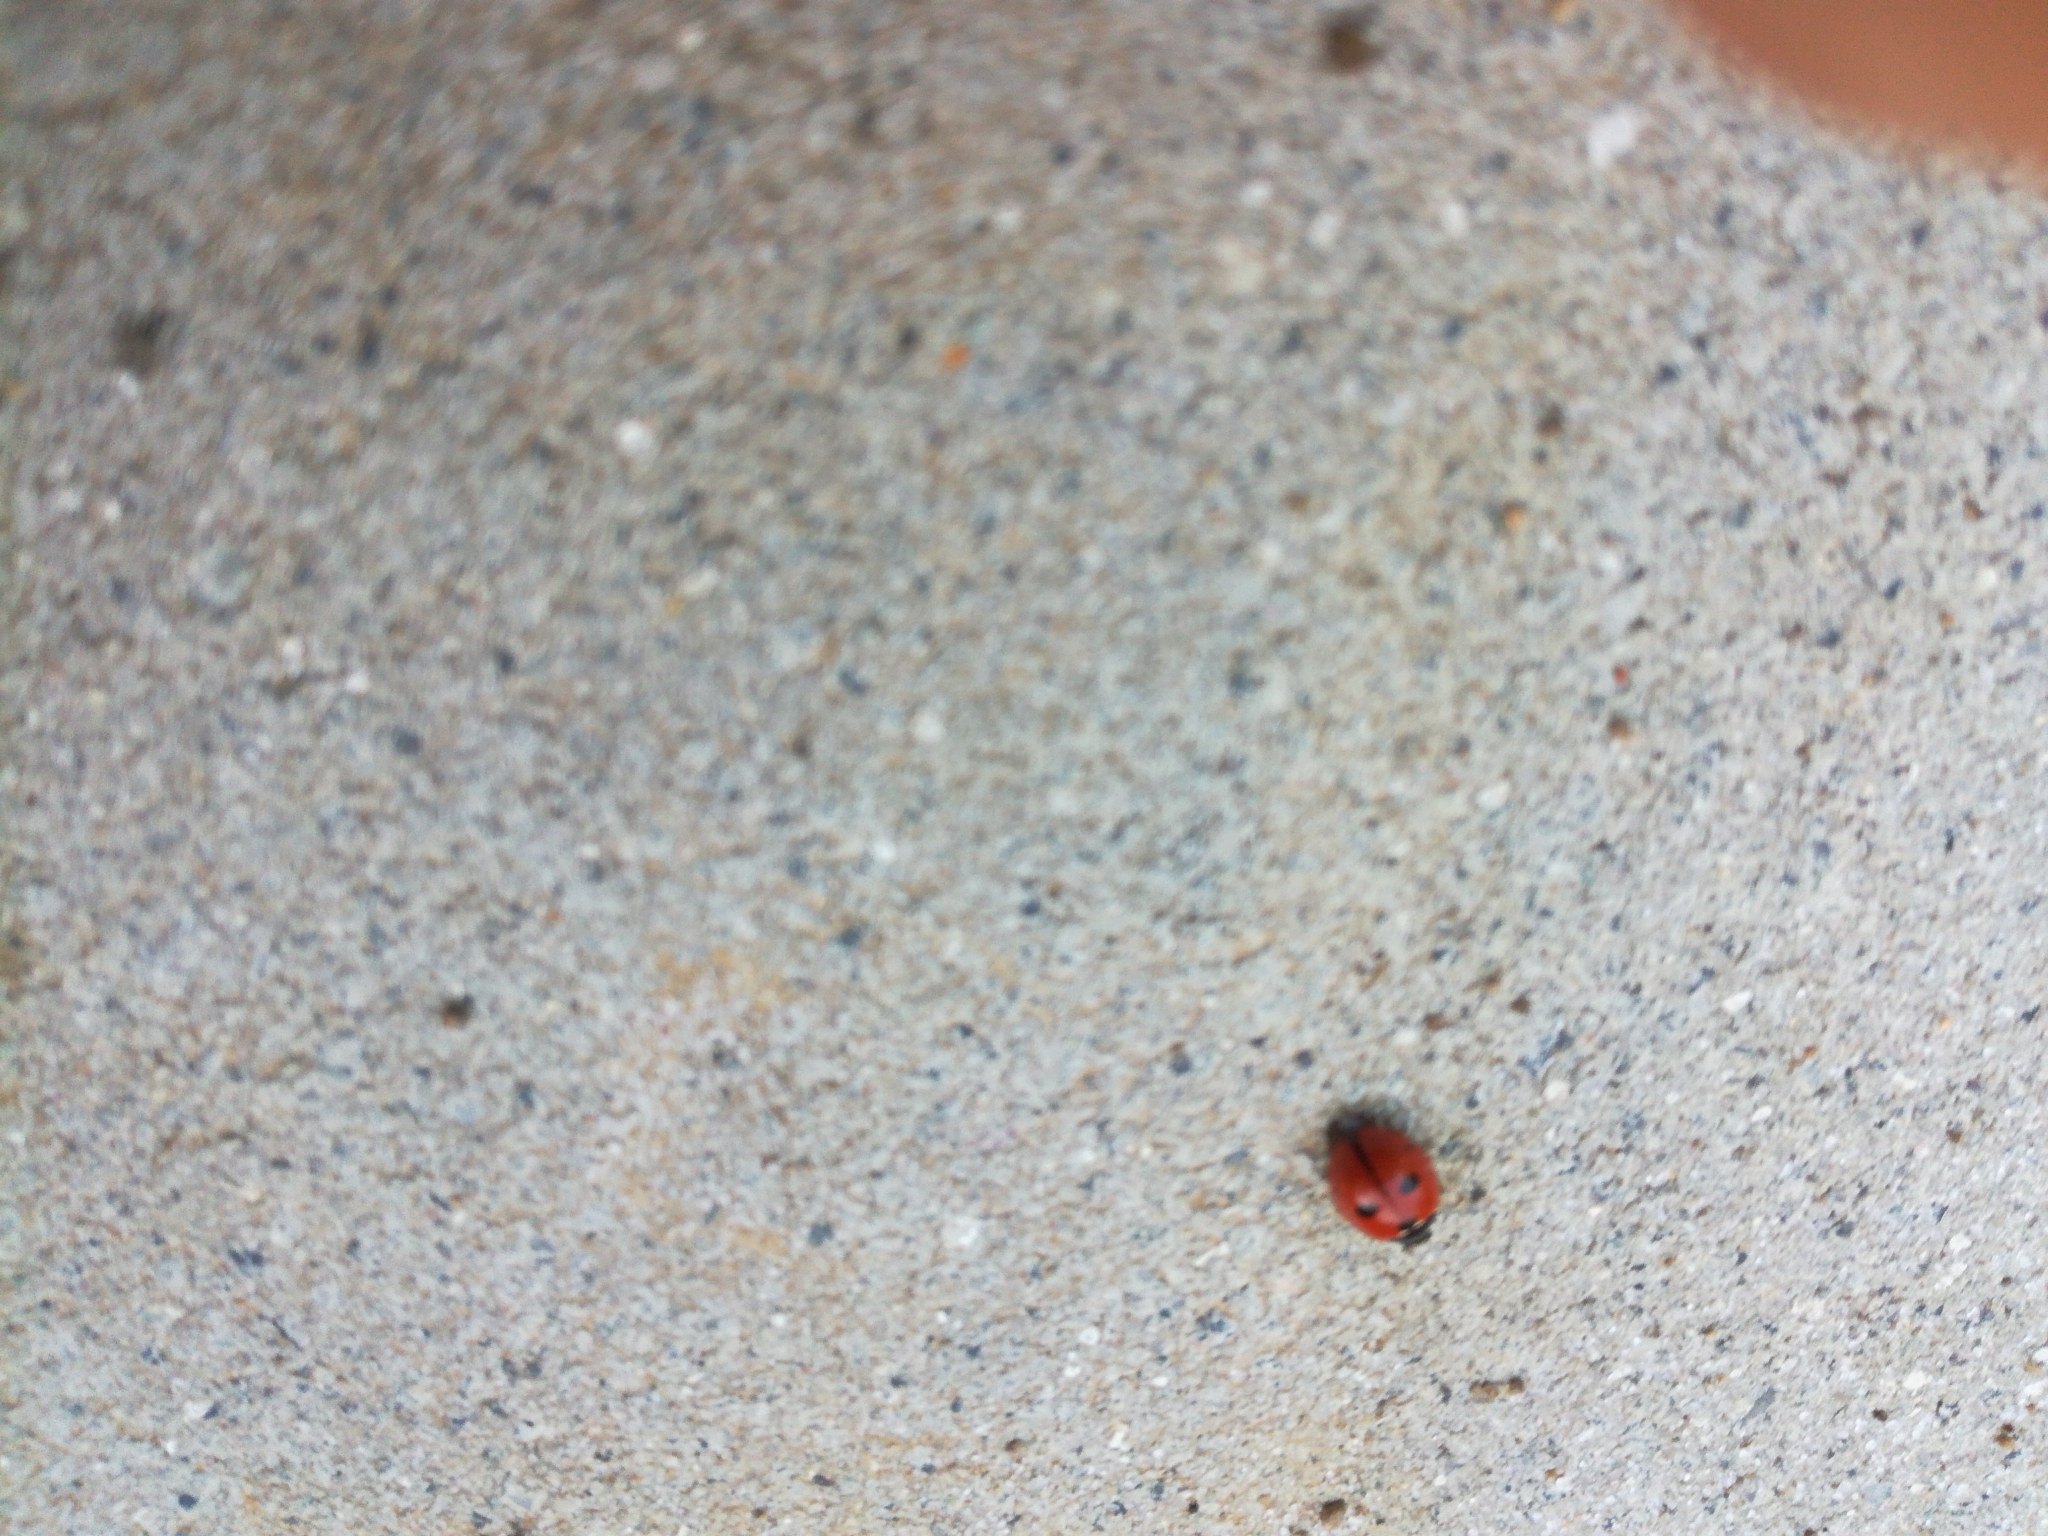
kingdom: Animalia
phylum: Arthropoda
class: Insecta
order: Coleoptera
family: Coccinellidae
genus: Coccinella
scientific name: Coccinella quinquepunctata
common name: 5-spot ladybird
